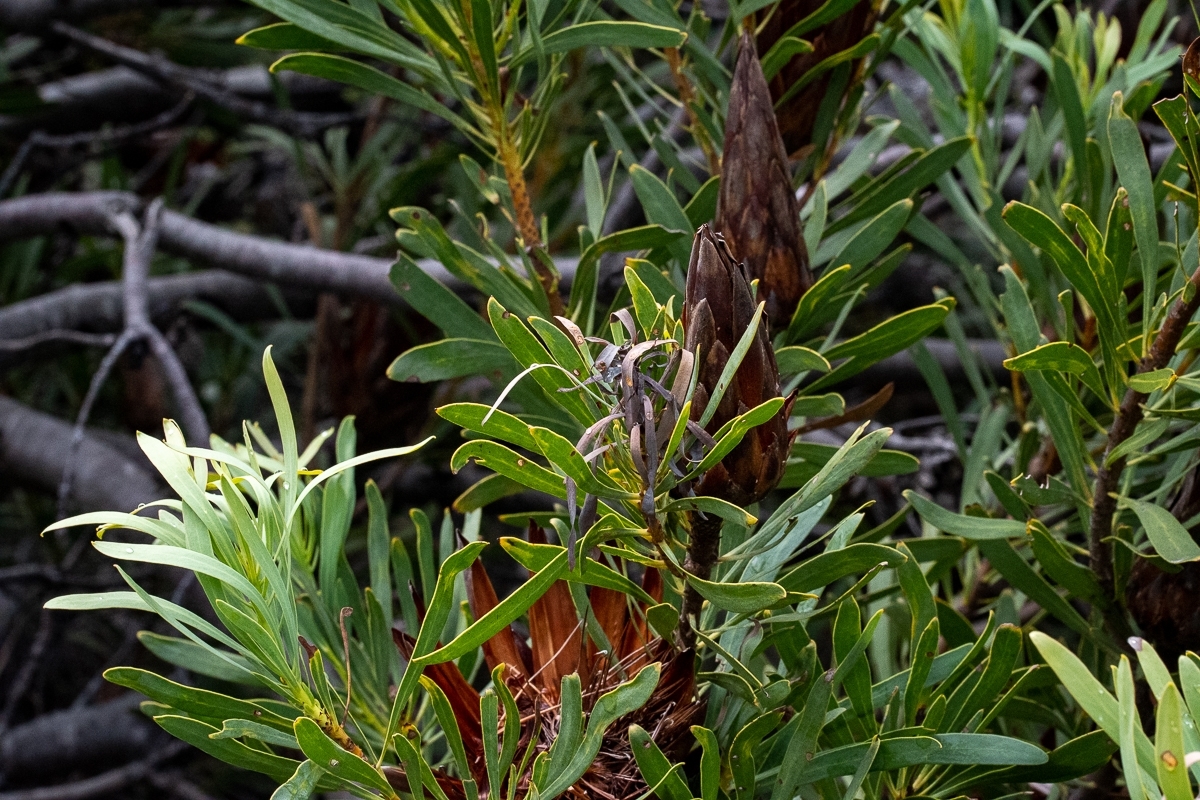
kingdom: Plantae
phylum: Tracheophyta
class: Magnoliopsida
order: Proteales
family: Proteaceae
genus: Protea
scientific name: Protea repens
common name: Sugarbush
